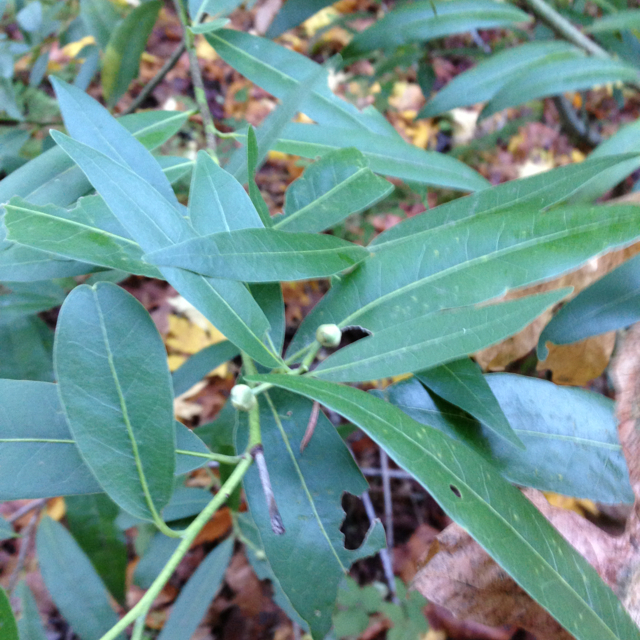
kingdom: Plantae
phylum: Tracheophyta
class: Magnoliopsida
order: Laurales
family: Lauraceae
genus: Umbellularia
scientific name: Umbellularia californica
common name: California bay
